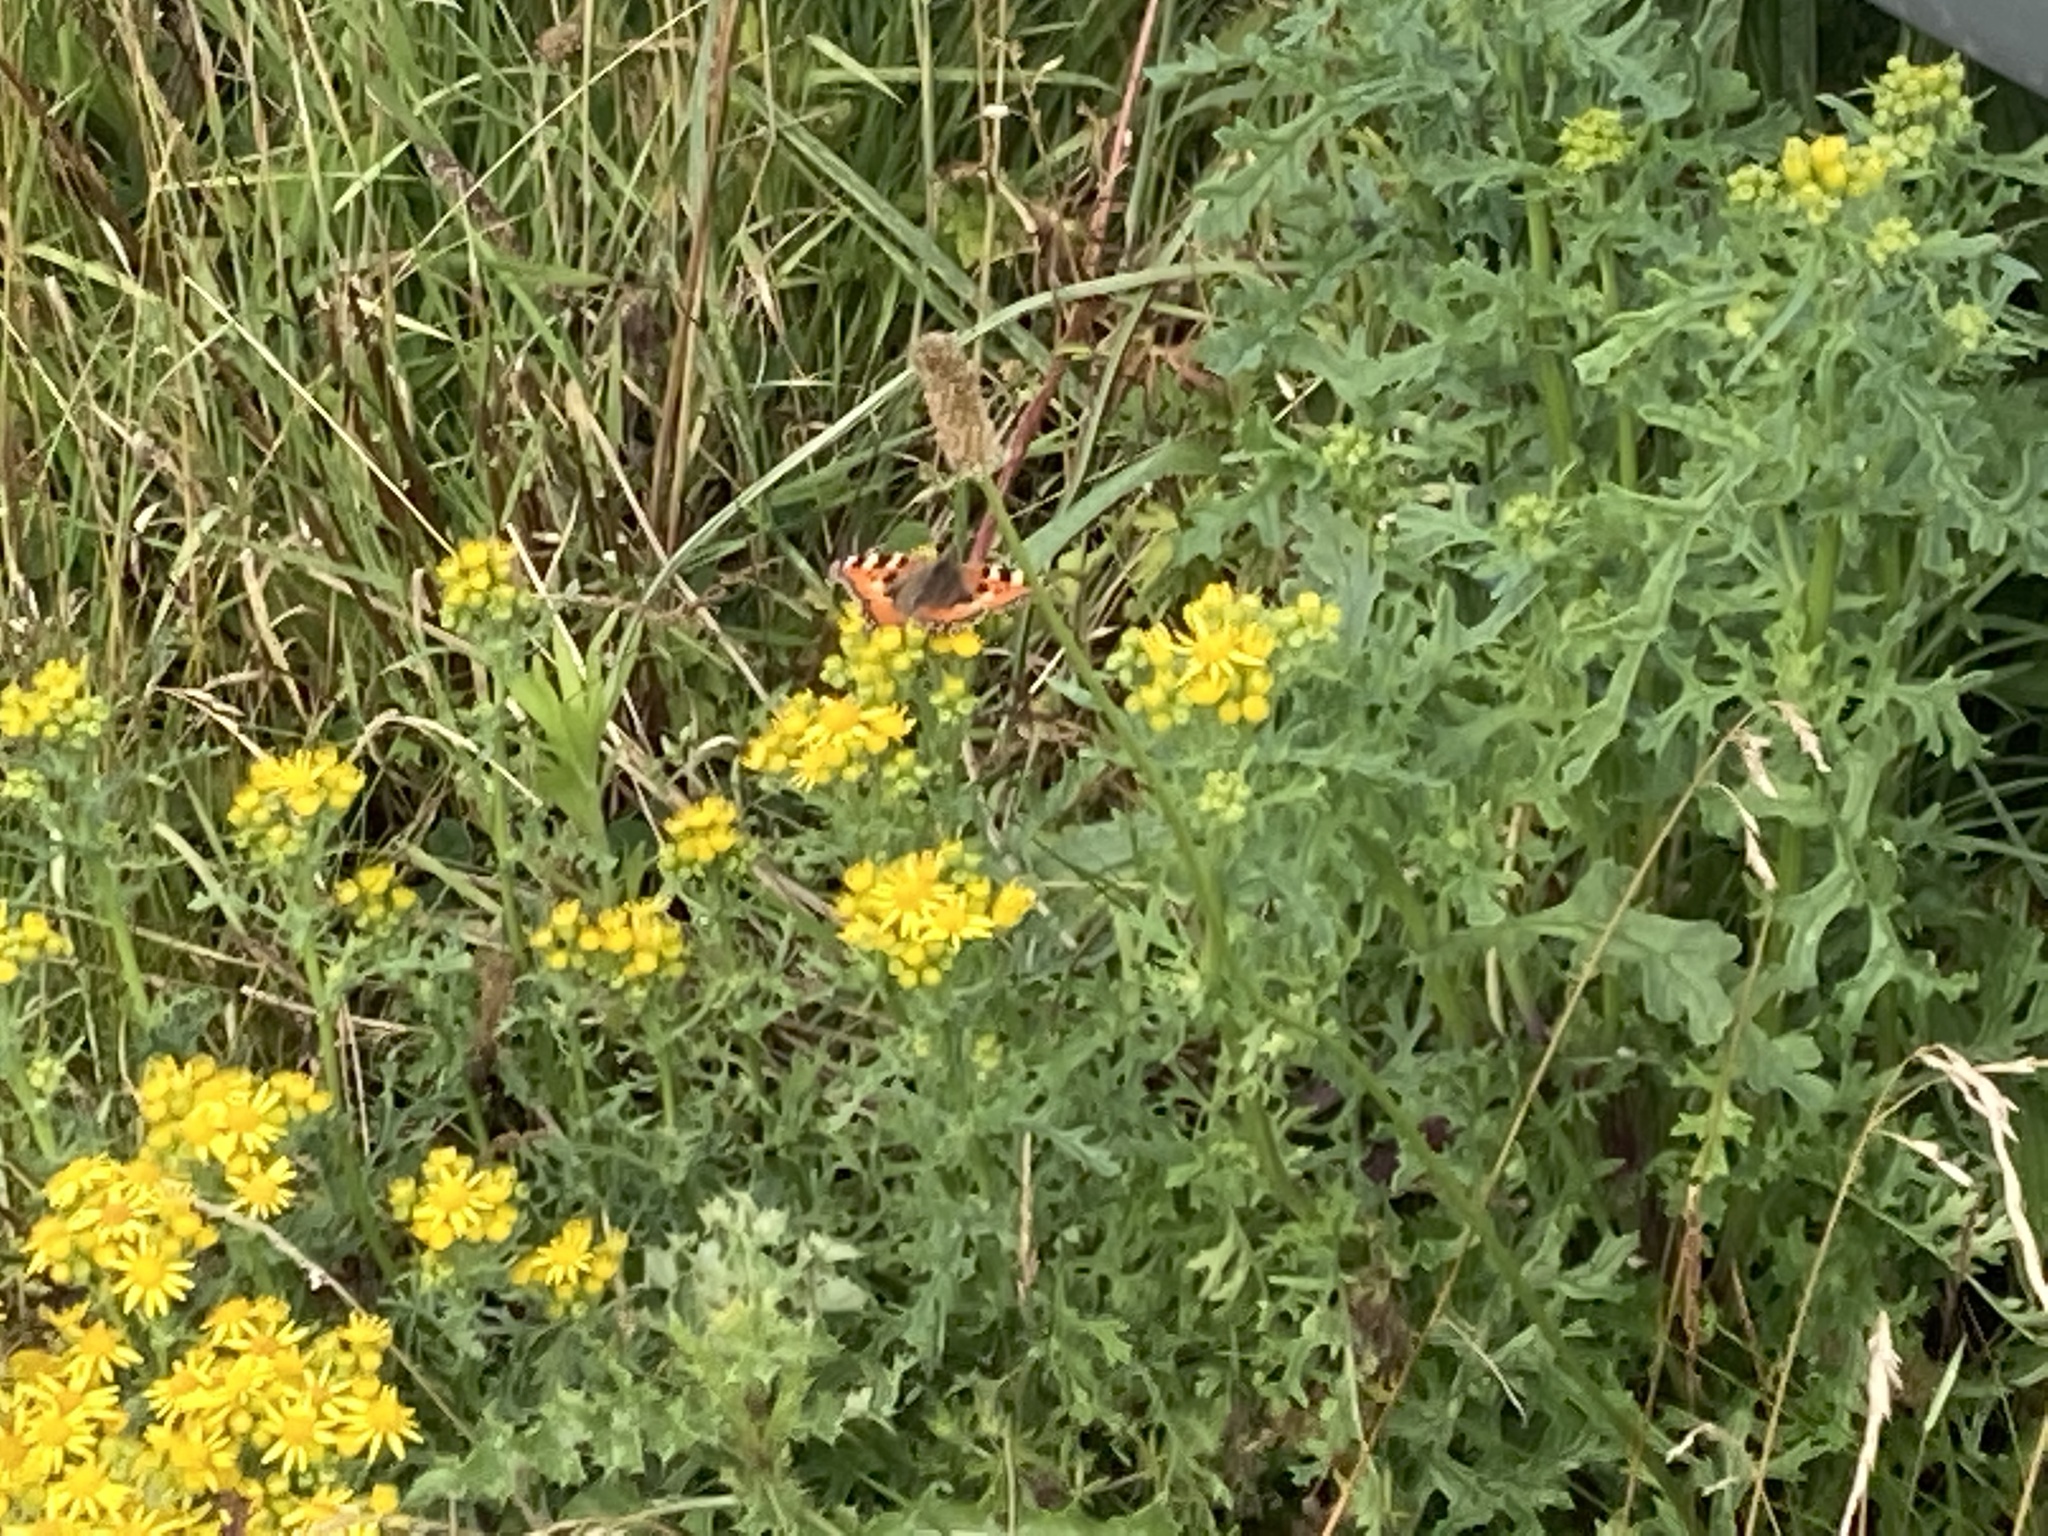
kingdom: Animalia
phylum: Arthropoda
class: Insecta
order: Lepidoptera
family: Nymphalidae
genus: Aglais
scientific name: Aglais urticae
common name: Small tortoiseshell
